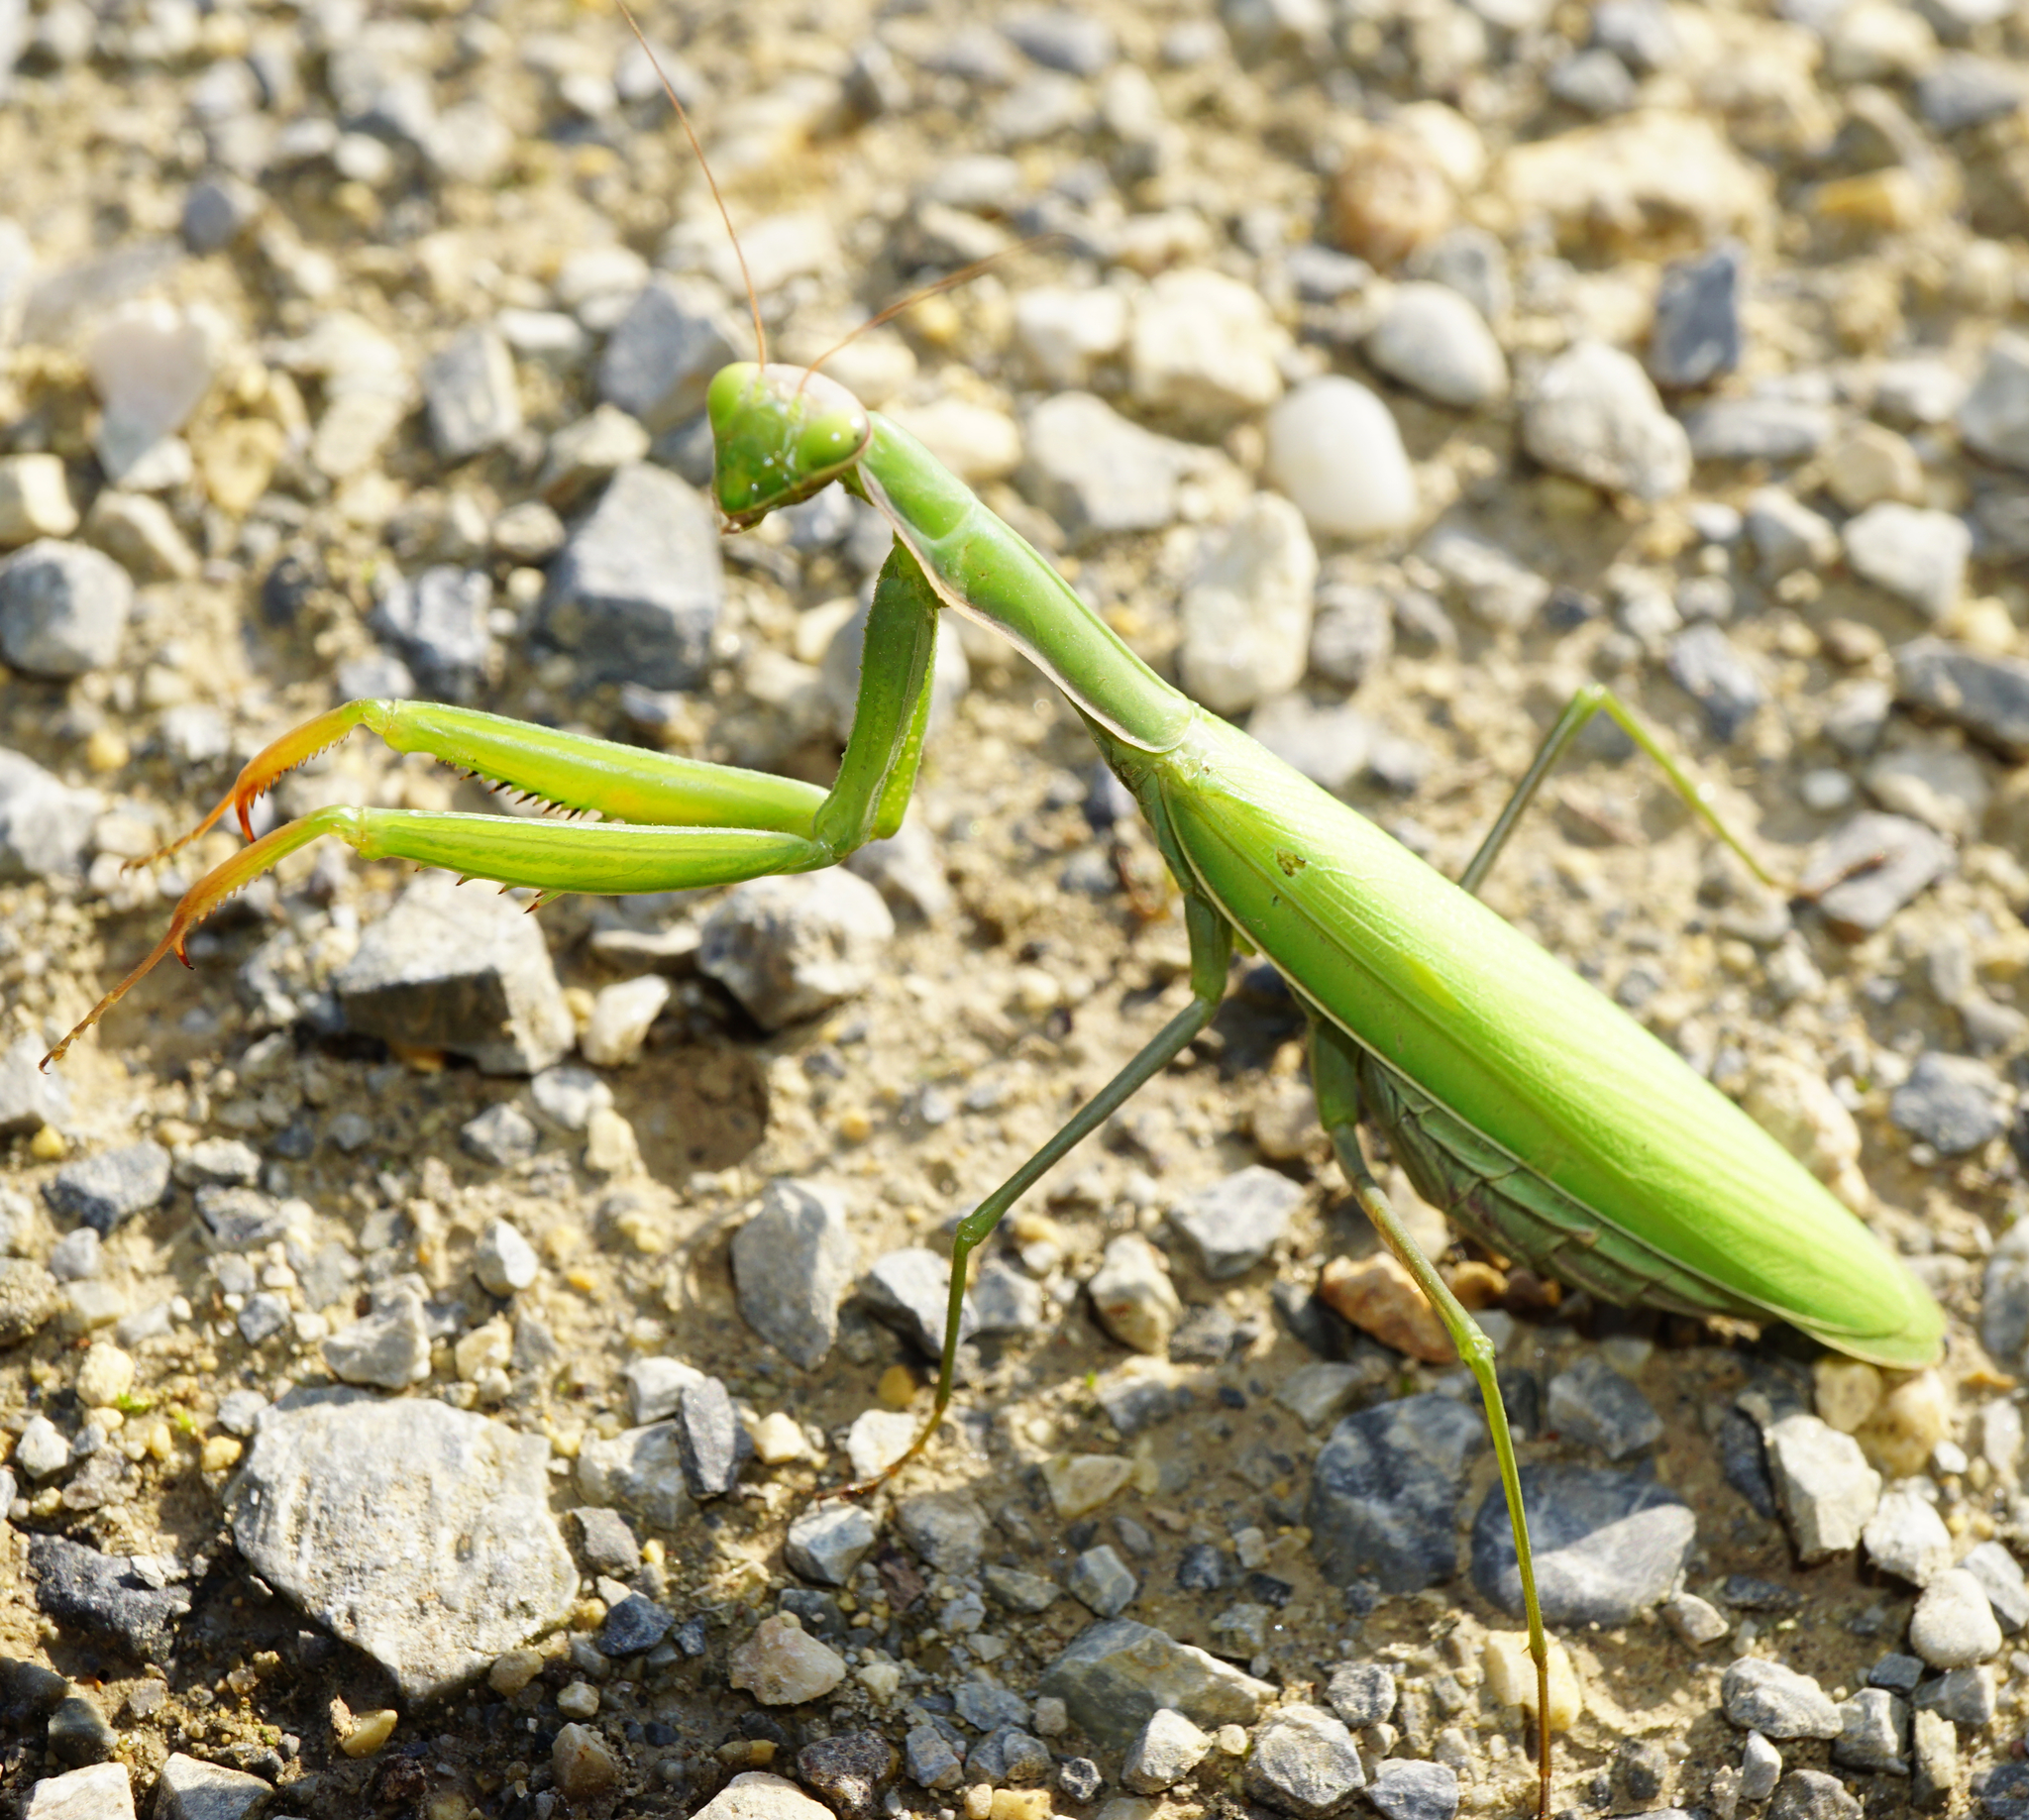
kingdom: Animalia
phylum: Arthropoda
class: Insecta
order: Mantodea
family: Mantidae
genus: Mantis
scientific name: Mantis religiosa
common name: Praying mantis
